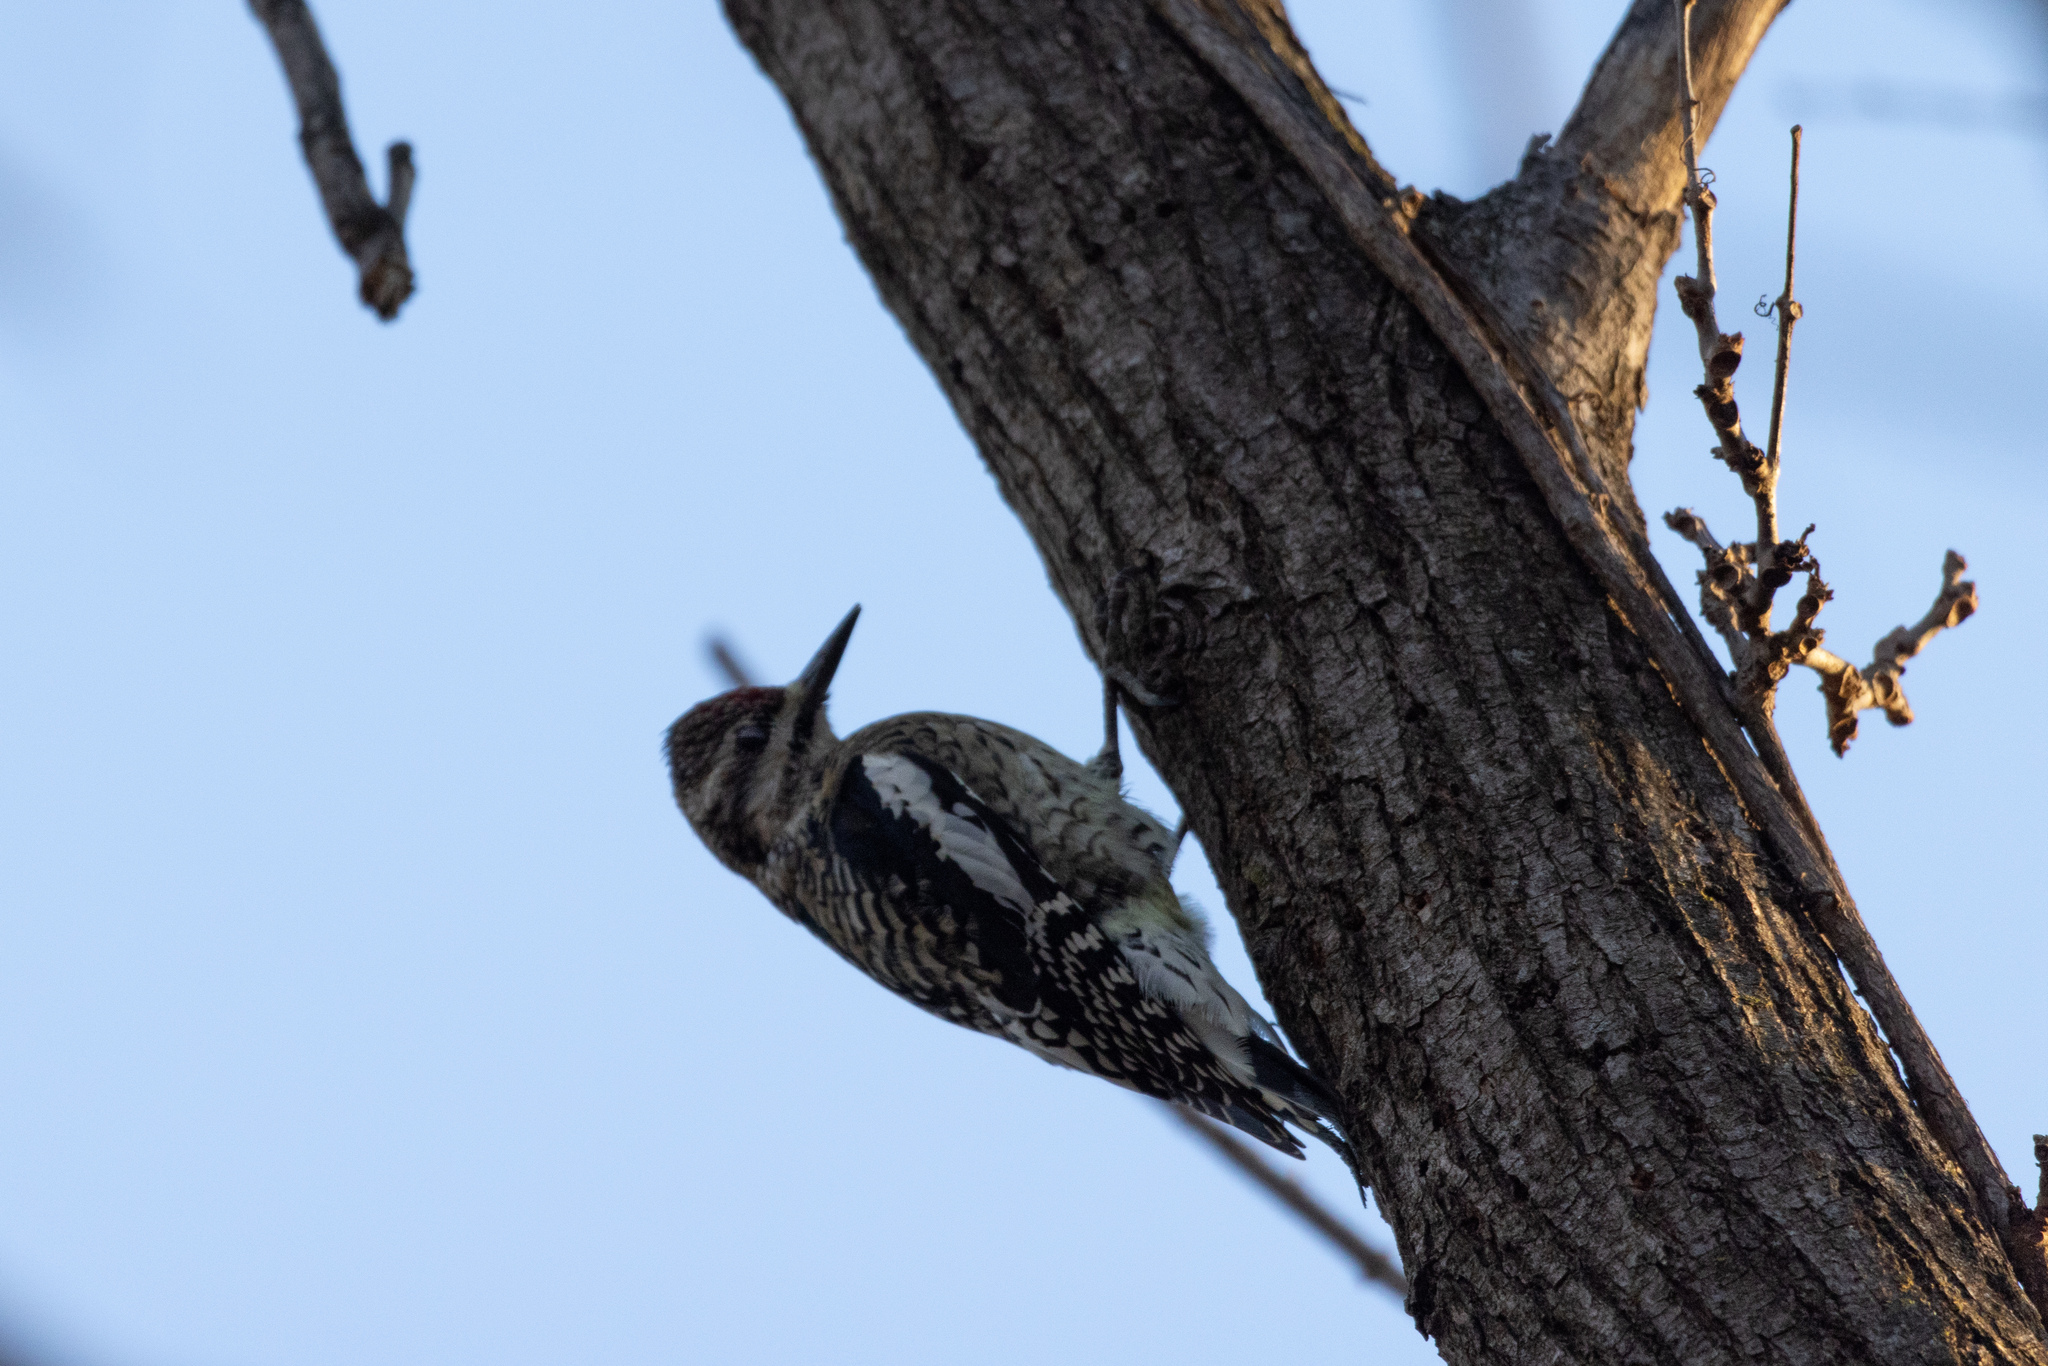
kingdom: Animalia
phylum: Chordata
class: Aves
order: Piciformes
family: Picidae
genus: Sphyrapicus
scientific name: Sphyrapicus varius
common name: Yellow-bellied sapsucker
